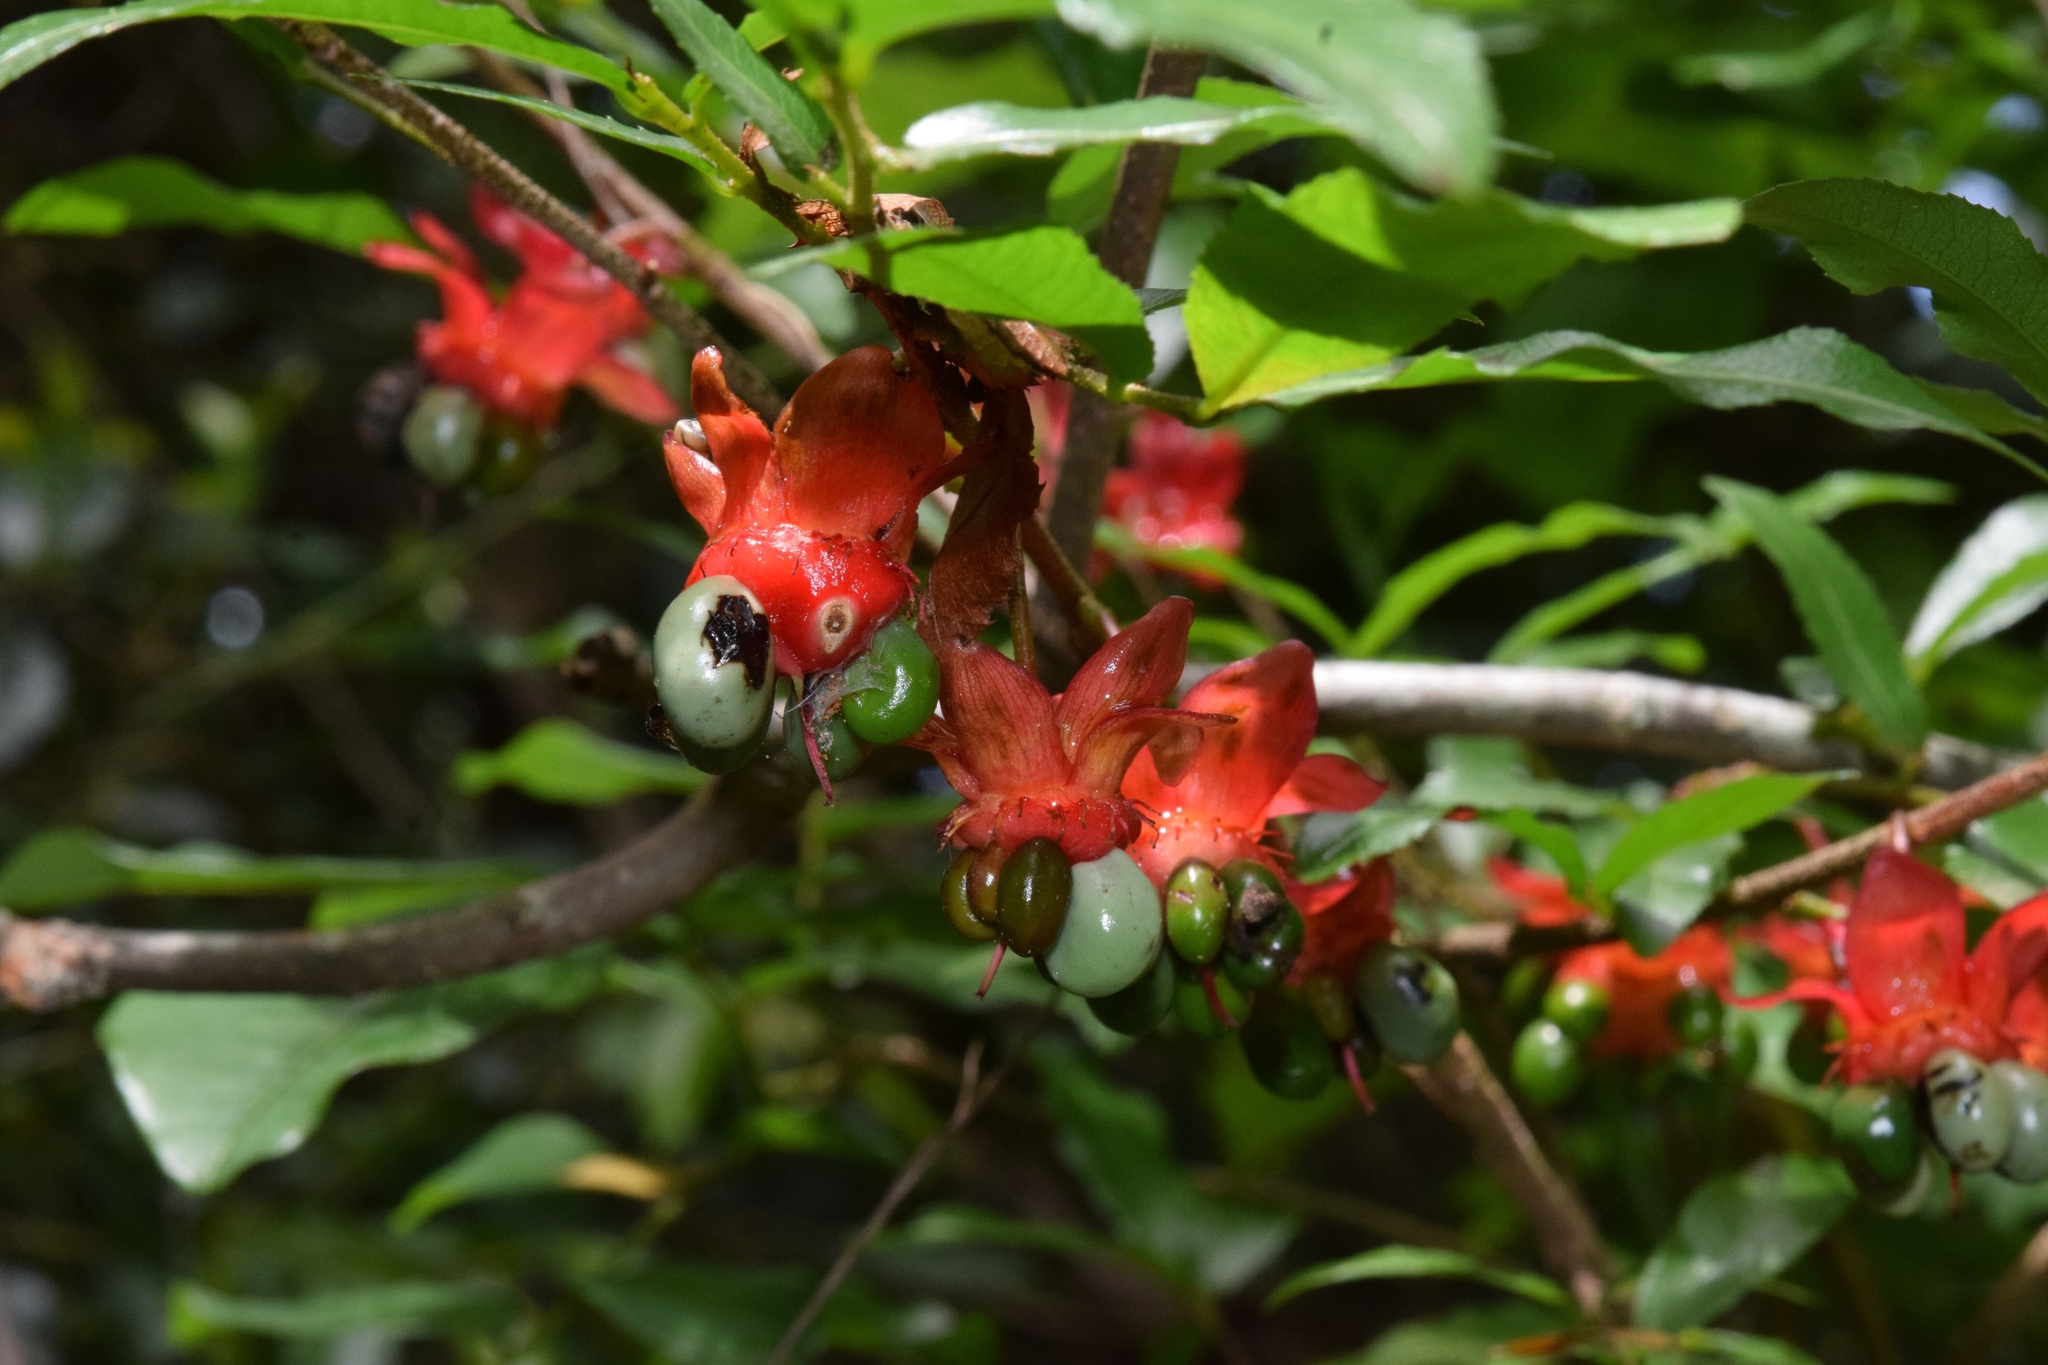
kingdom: Plantae
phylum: Tracheophyta
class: Magnoliopsida
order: Malpighiales
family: Ochnaceae
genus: Ochna
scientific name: Ochna serrulata
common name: Mickey mouse plant
